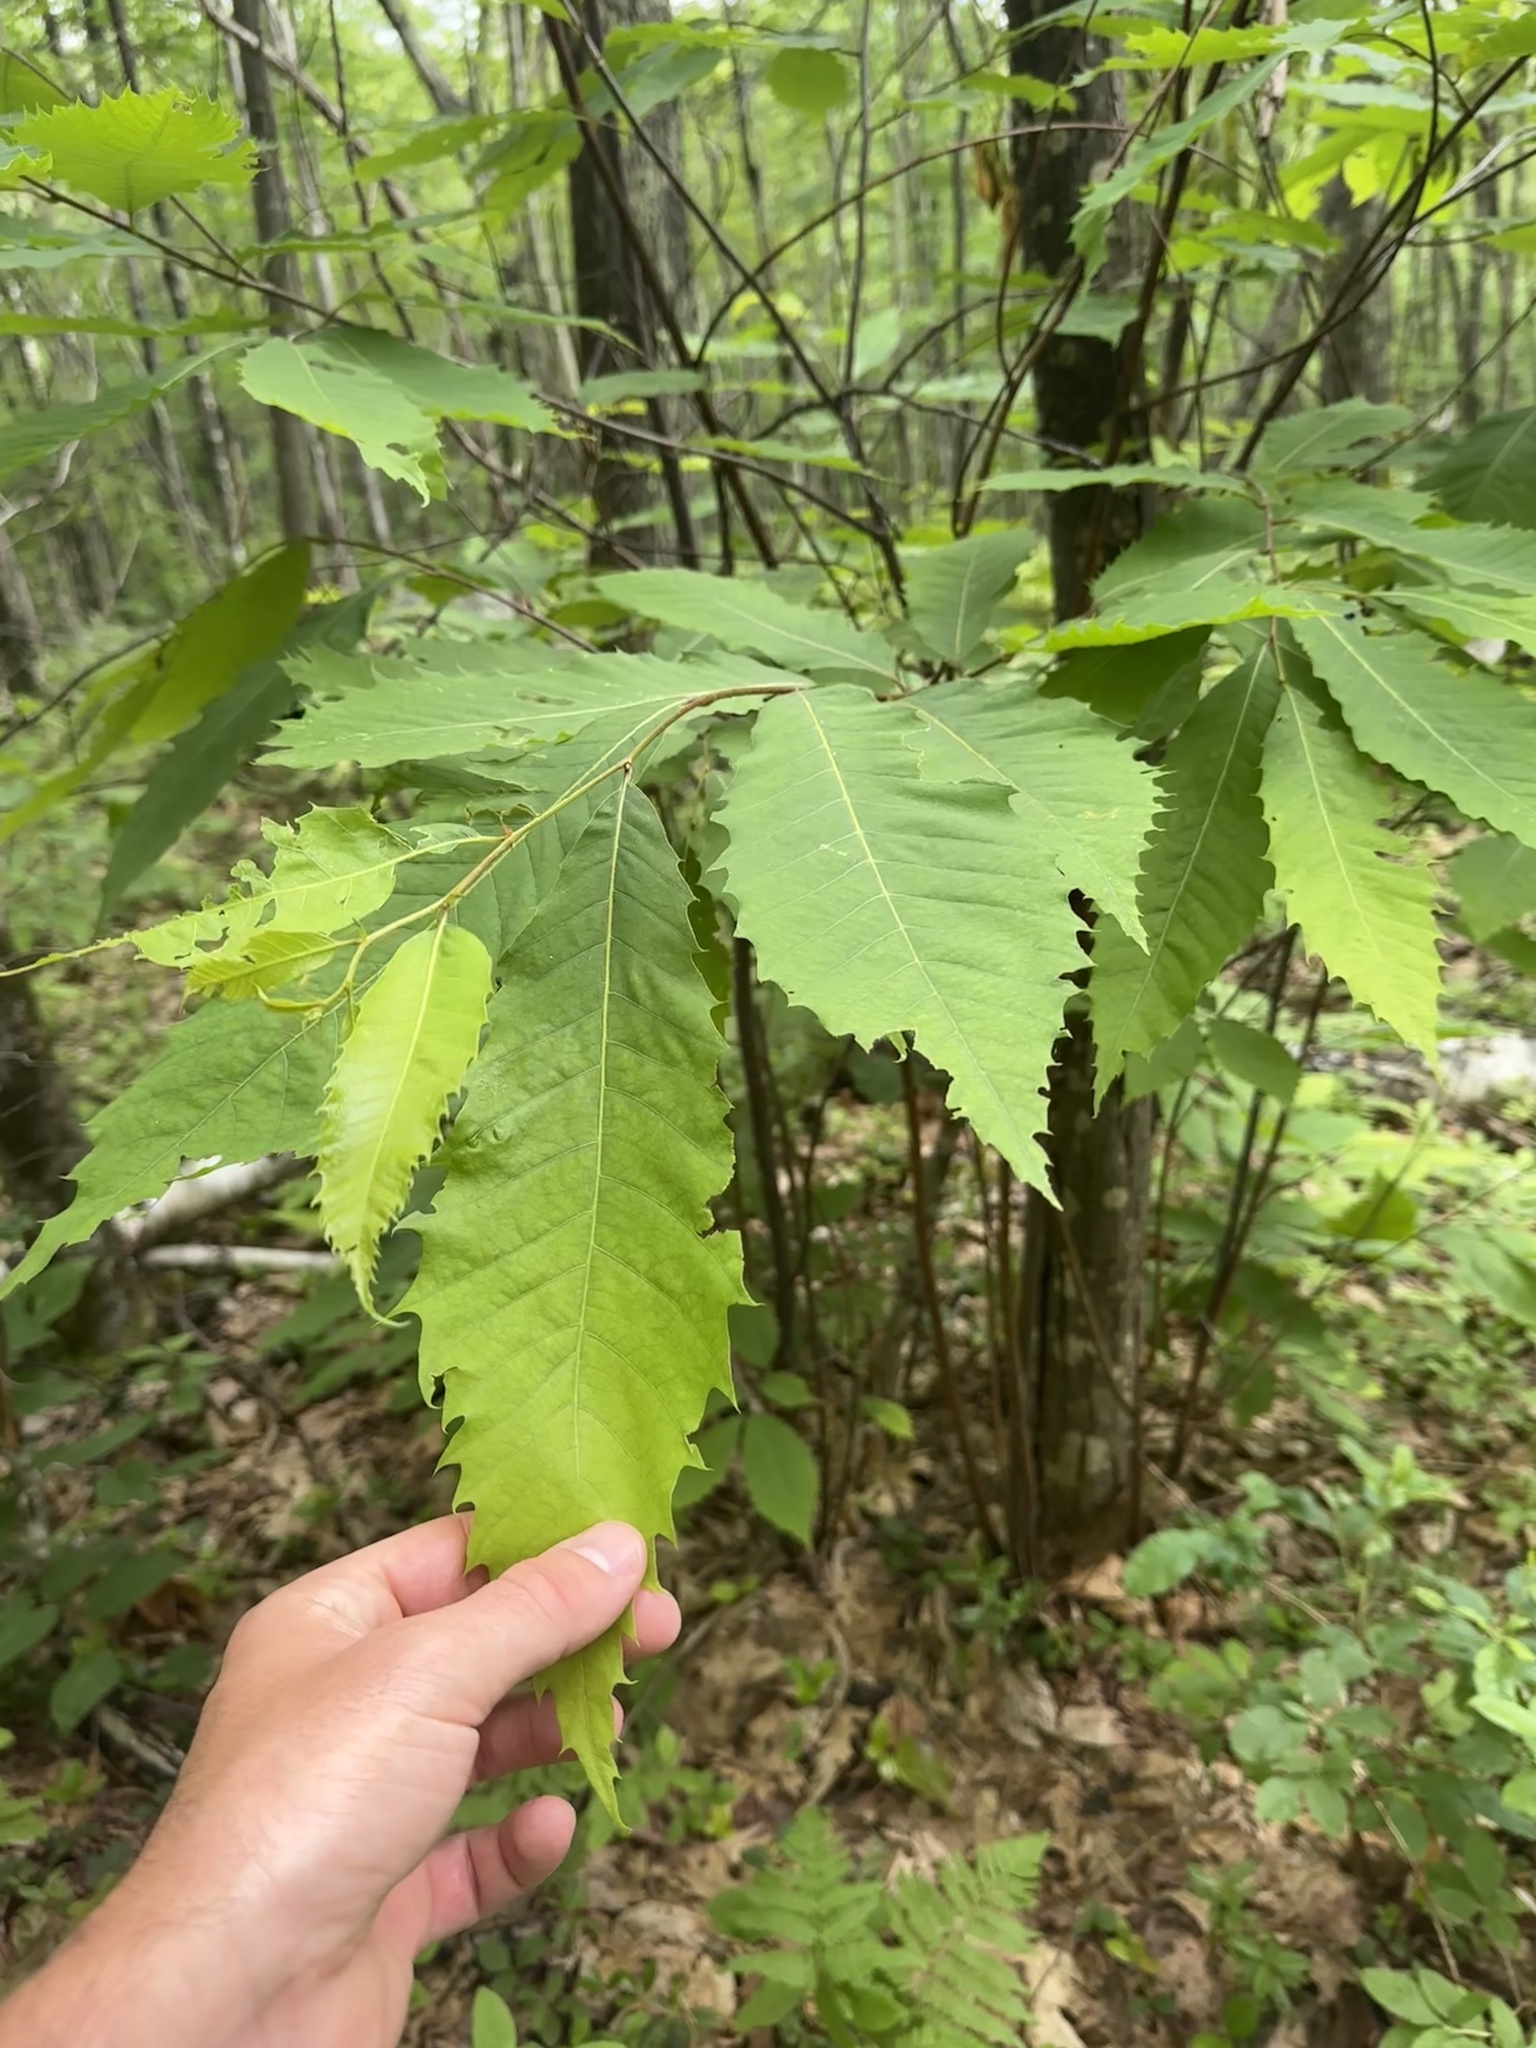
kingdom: Plantae
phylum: Tracheophyta
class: Magnoliopsida
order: Fagales
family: Fagaceae
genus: Castanea
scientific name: Castanea dentata
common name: American chestnut
